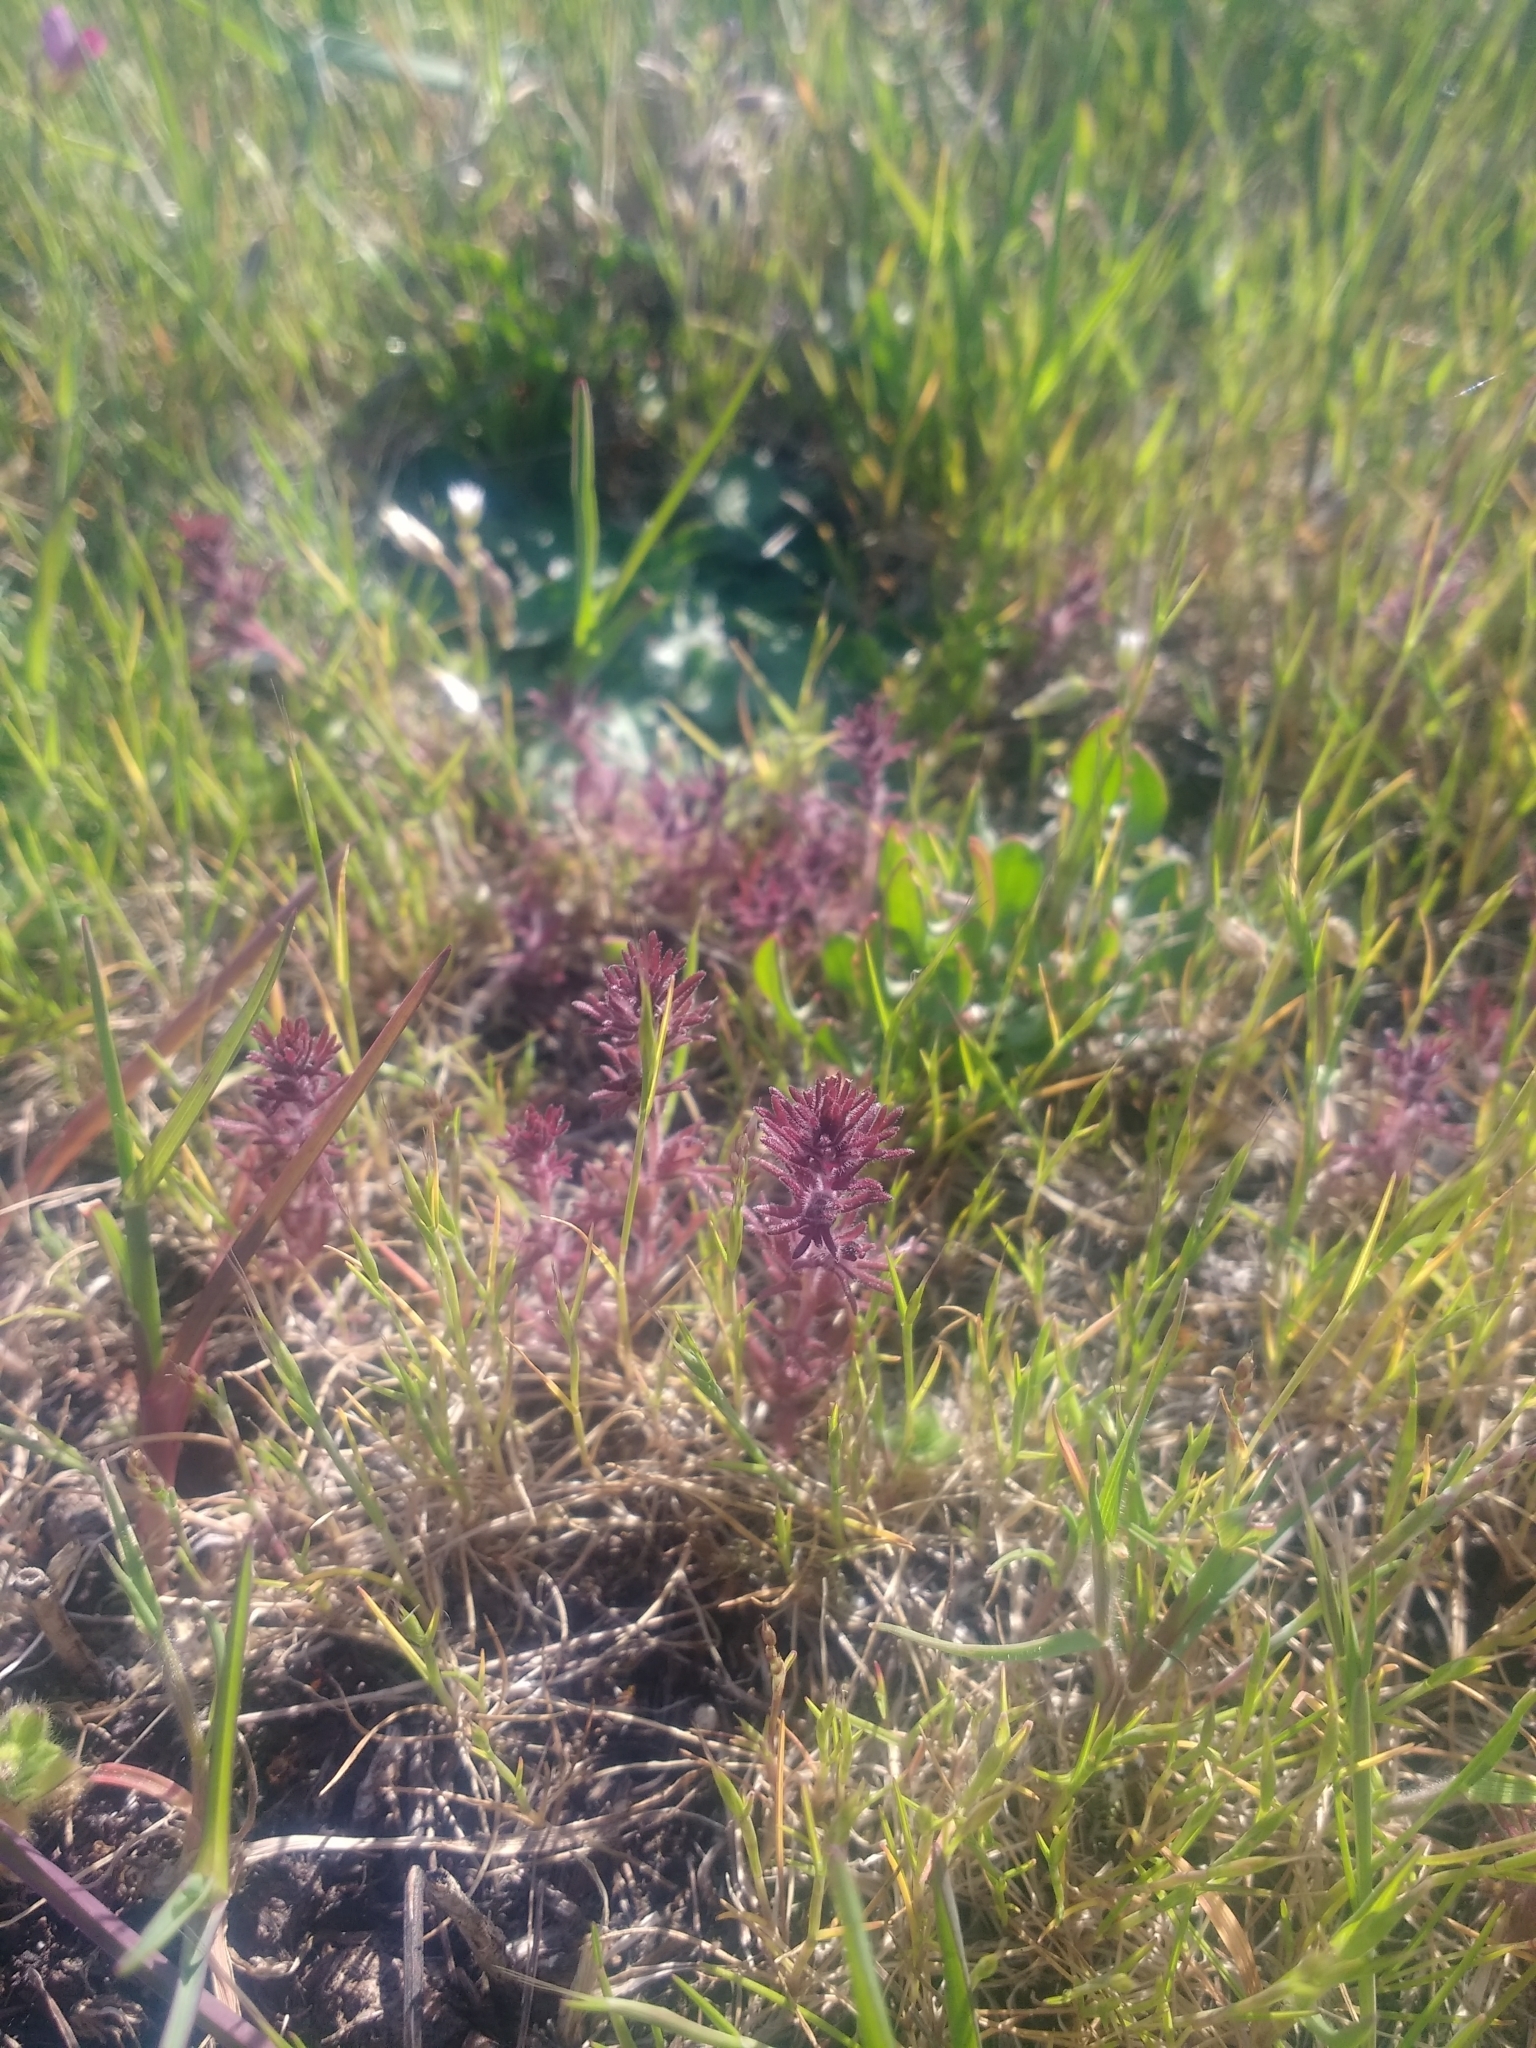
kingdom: Plantae
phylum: Tracheophyta
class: Magnoliopsida
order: Lamiales
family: Orobanchaceae
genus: Triphysaria
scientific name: Triphysaria pusilla
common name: Dwarf false owl-clover
